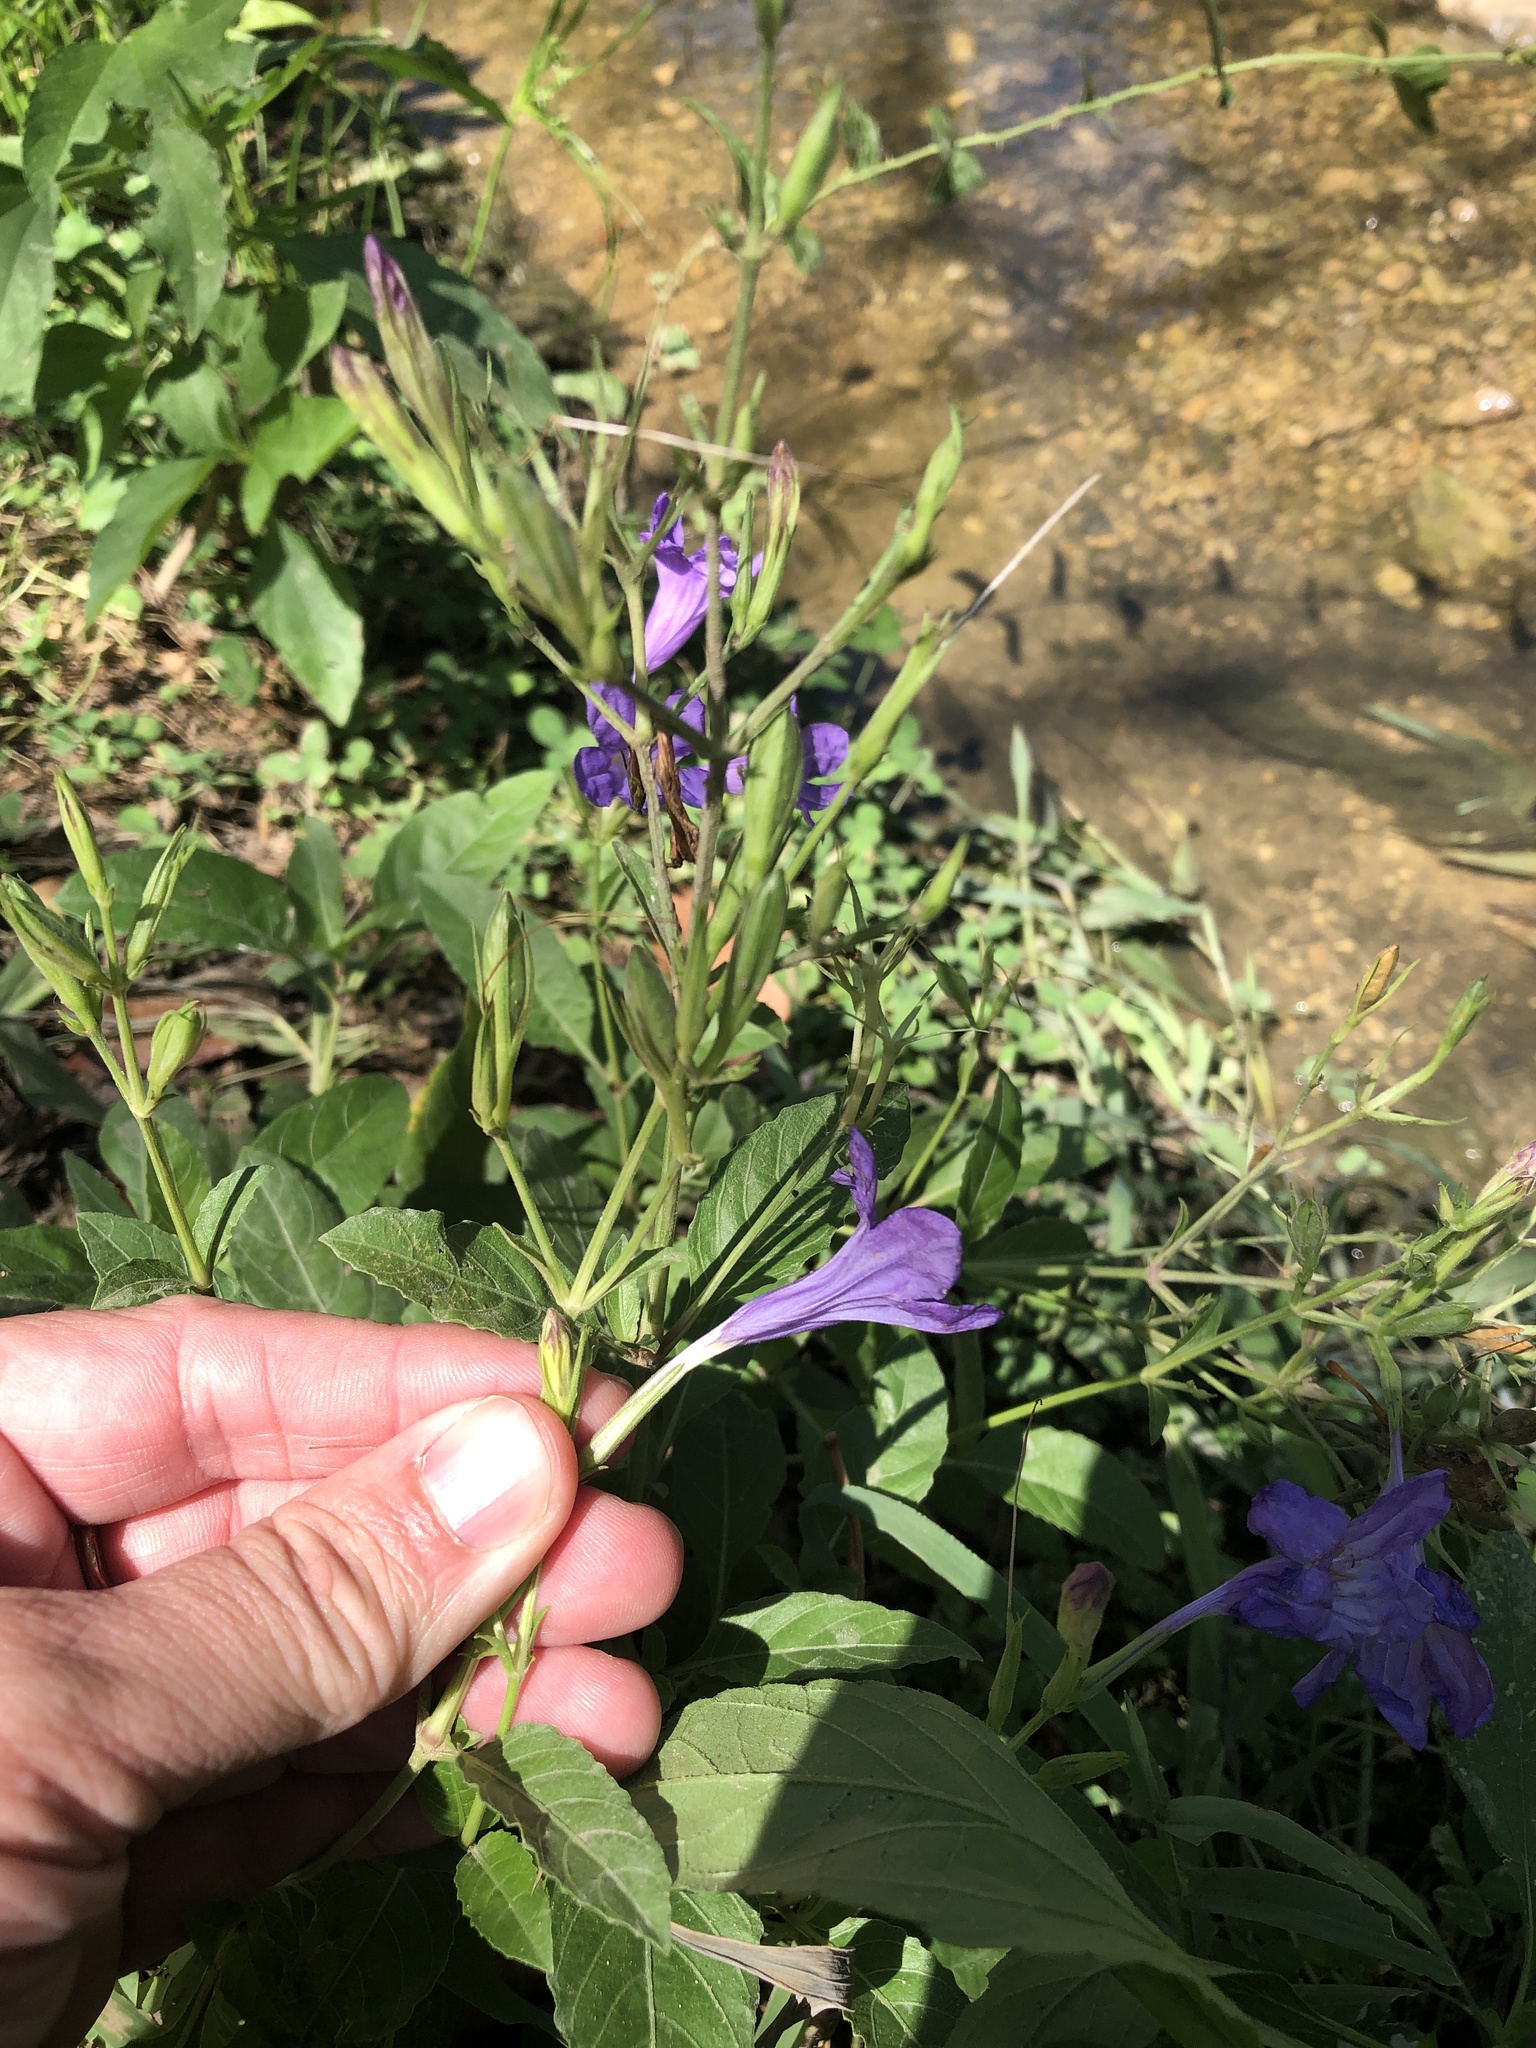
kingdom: Plantae
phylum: Tracheophyta
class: Magnoliopsida
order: Lamiales
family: Acanthaceae
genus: Ruellia
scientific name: Ruellia ciliatiflora
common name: Hairyflower wild petunia
